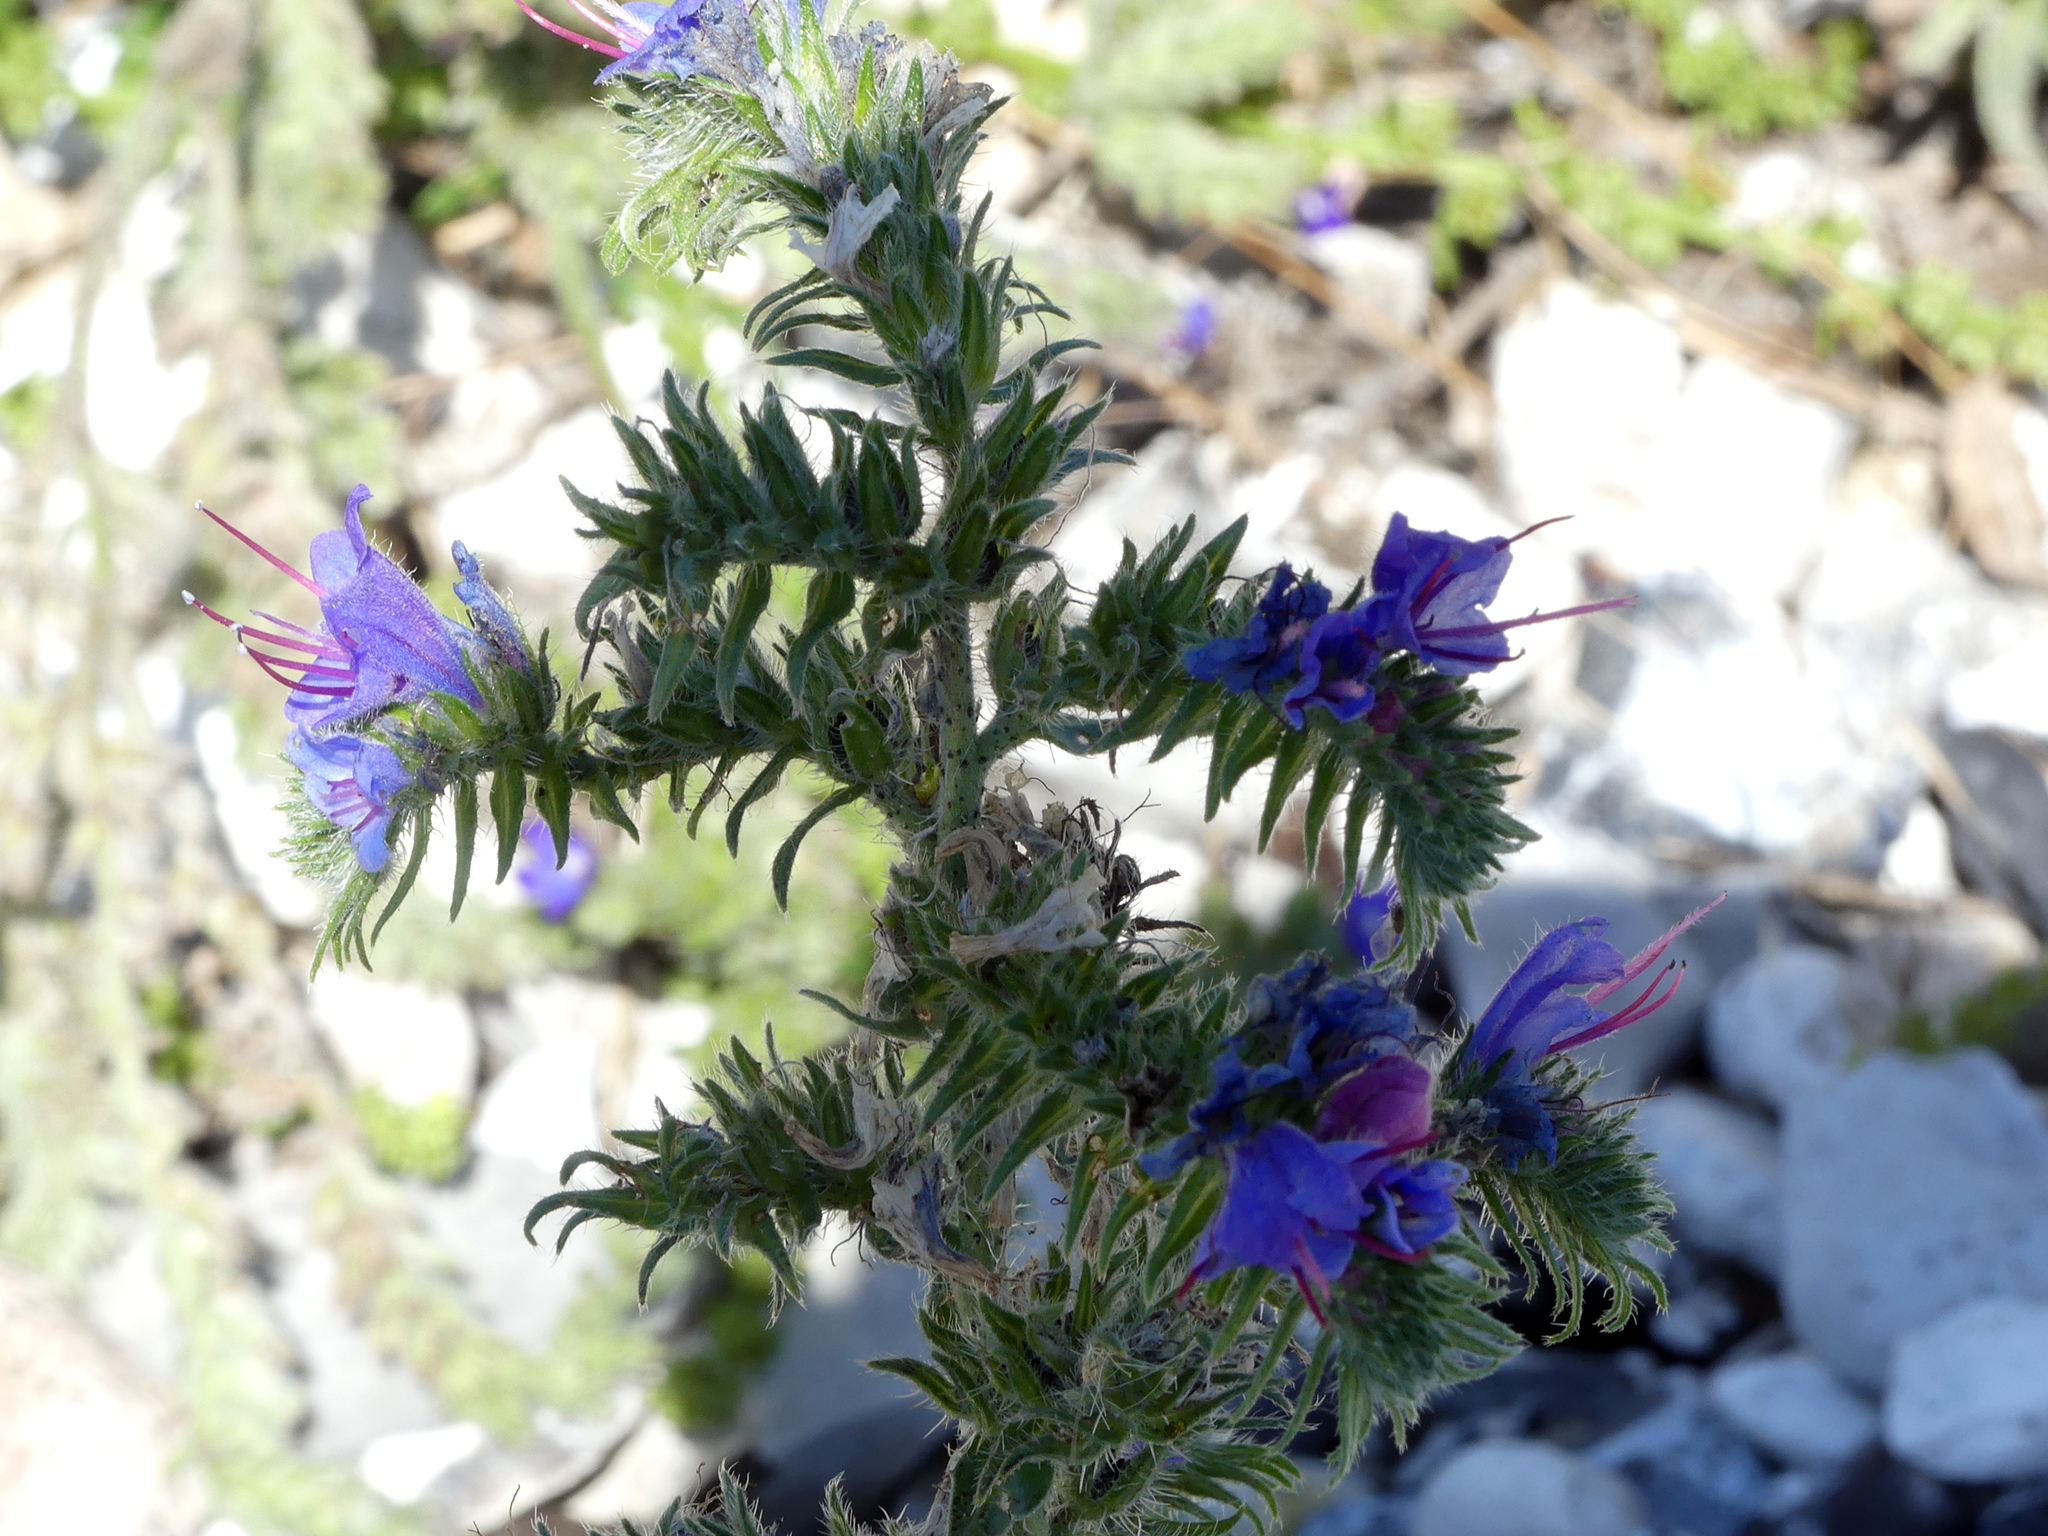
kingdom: Plantae
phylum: Tracheophyta
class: Magnoliopsida
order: Boraginales
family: Boraginaceae
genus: Echium
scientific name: Echium vulgare
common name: Common viper's bugloss
